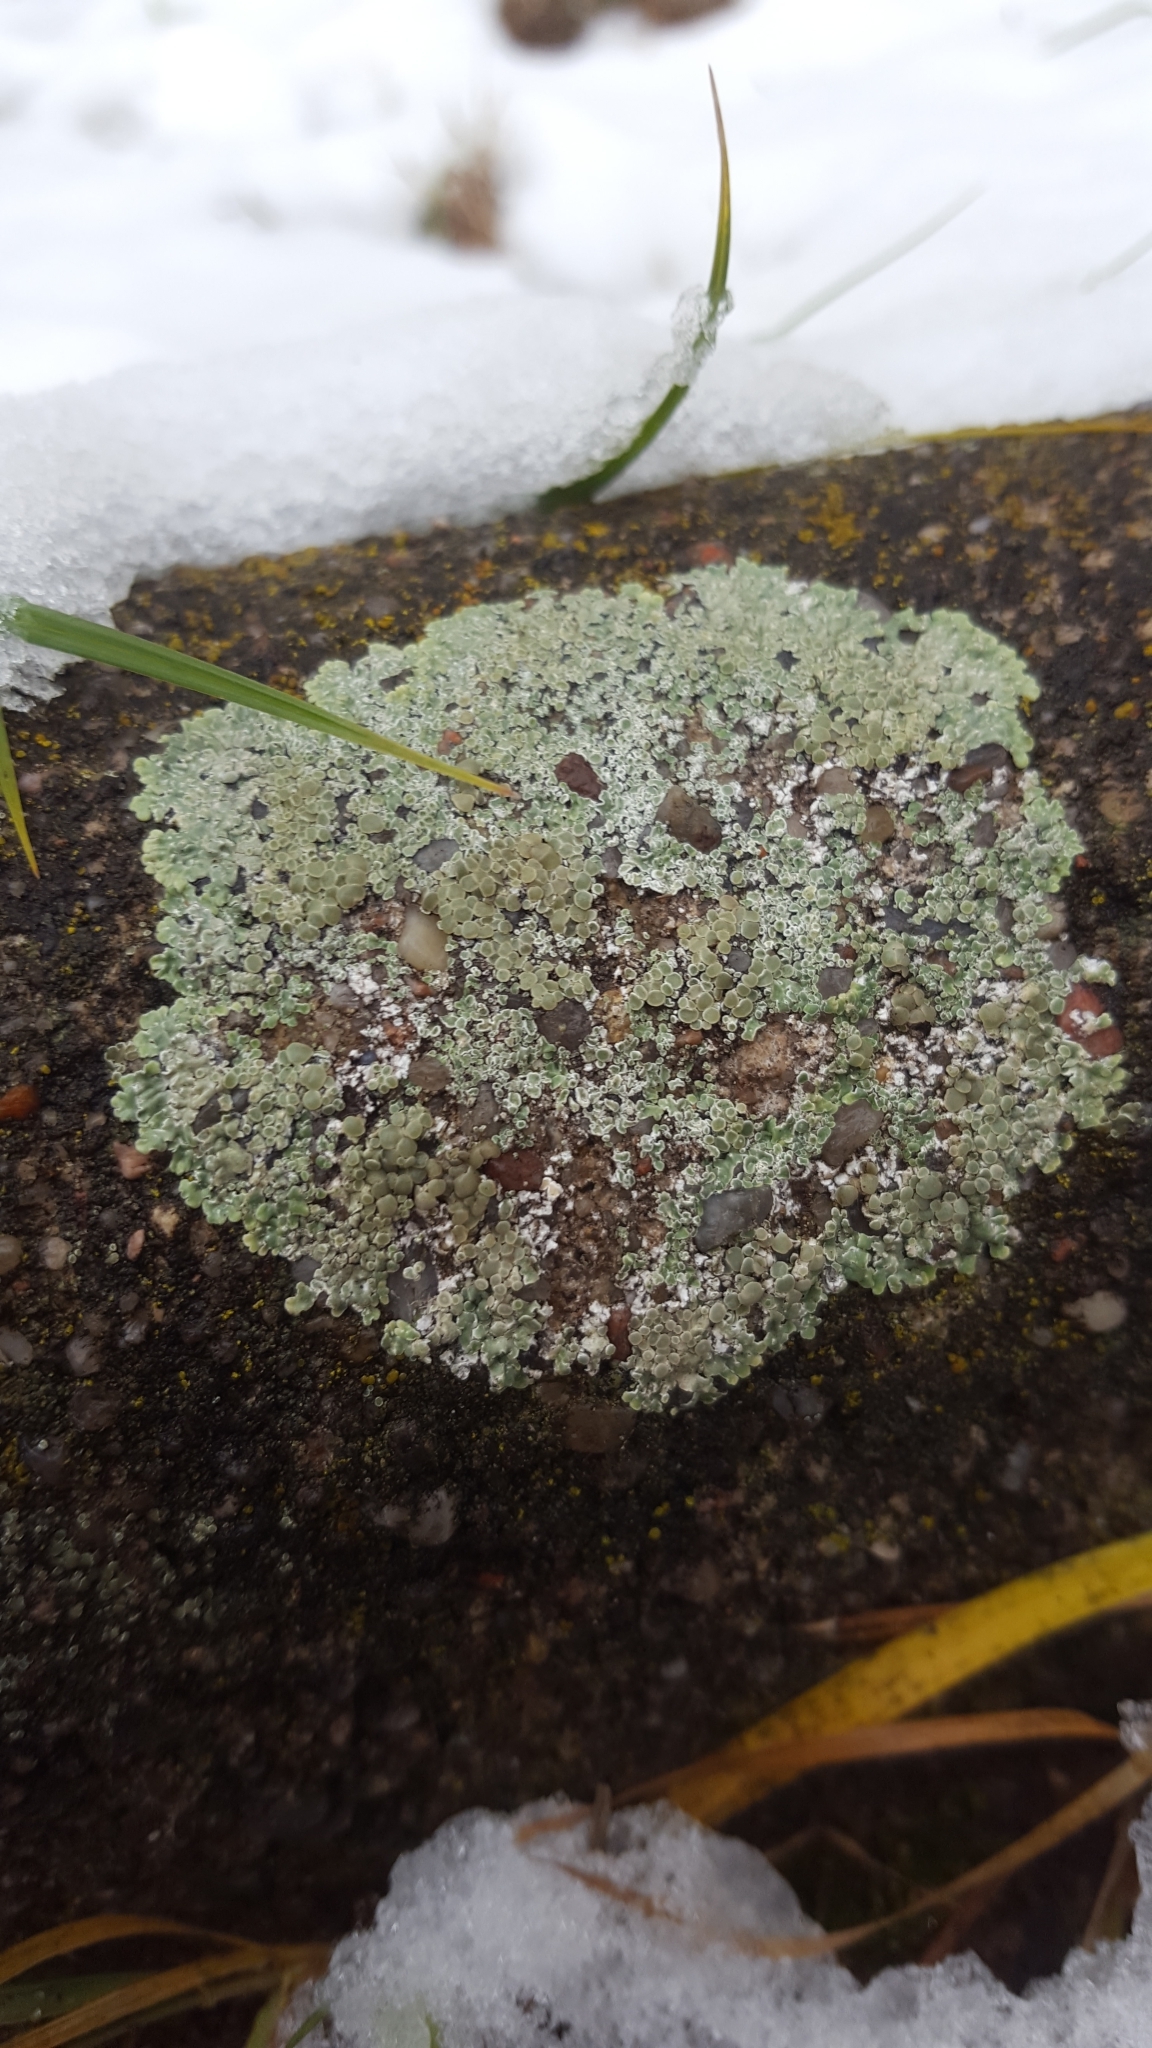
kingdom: Fungi
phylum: Ascomycota
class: Lecanoromycetes
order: Lecanorales
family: Lecanoraceae
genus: Protoparmeliopsis
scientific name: Protoparmeliopsis muralis
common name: Stonewall rim lichen
